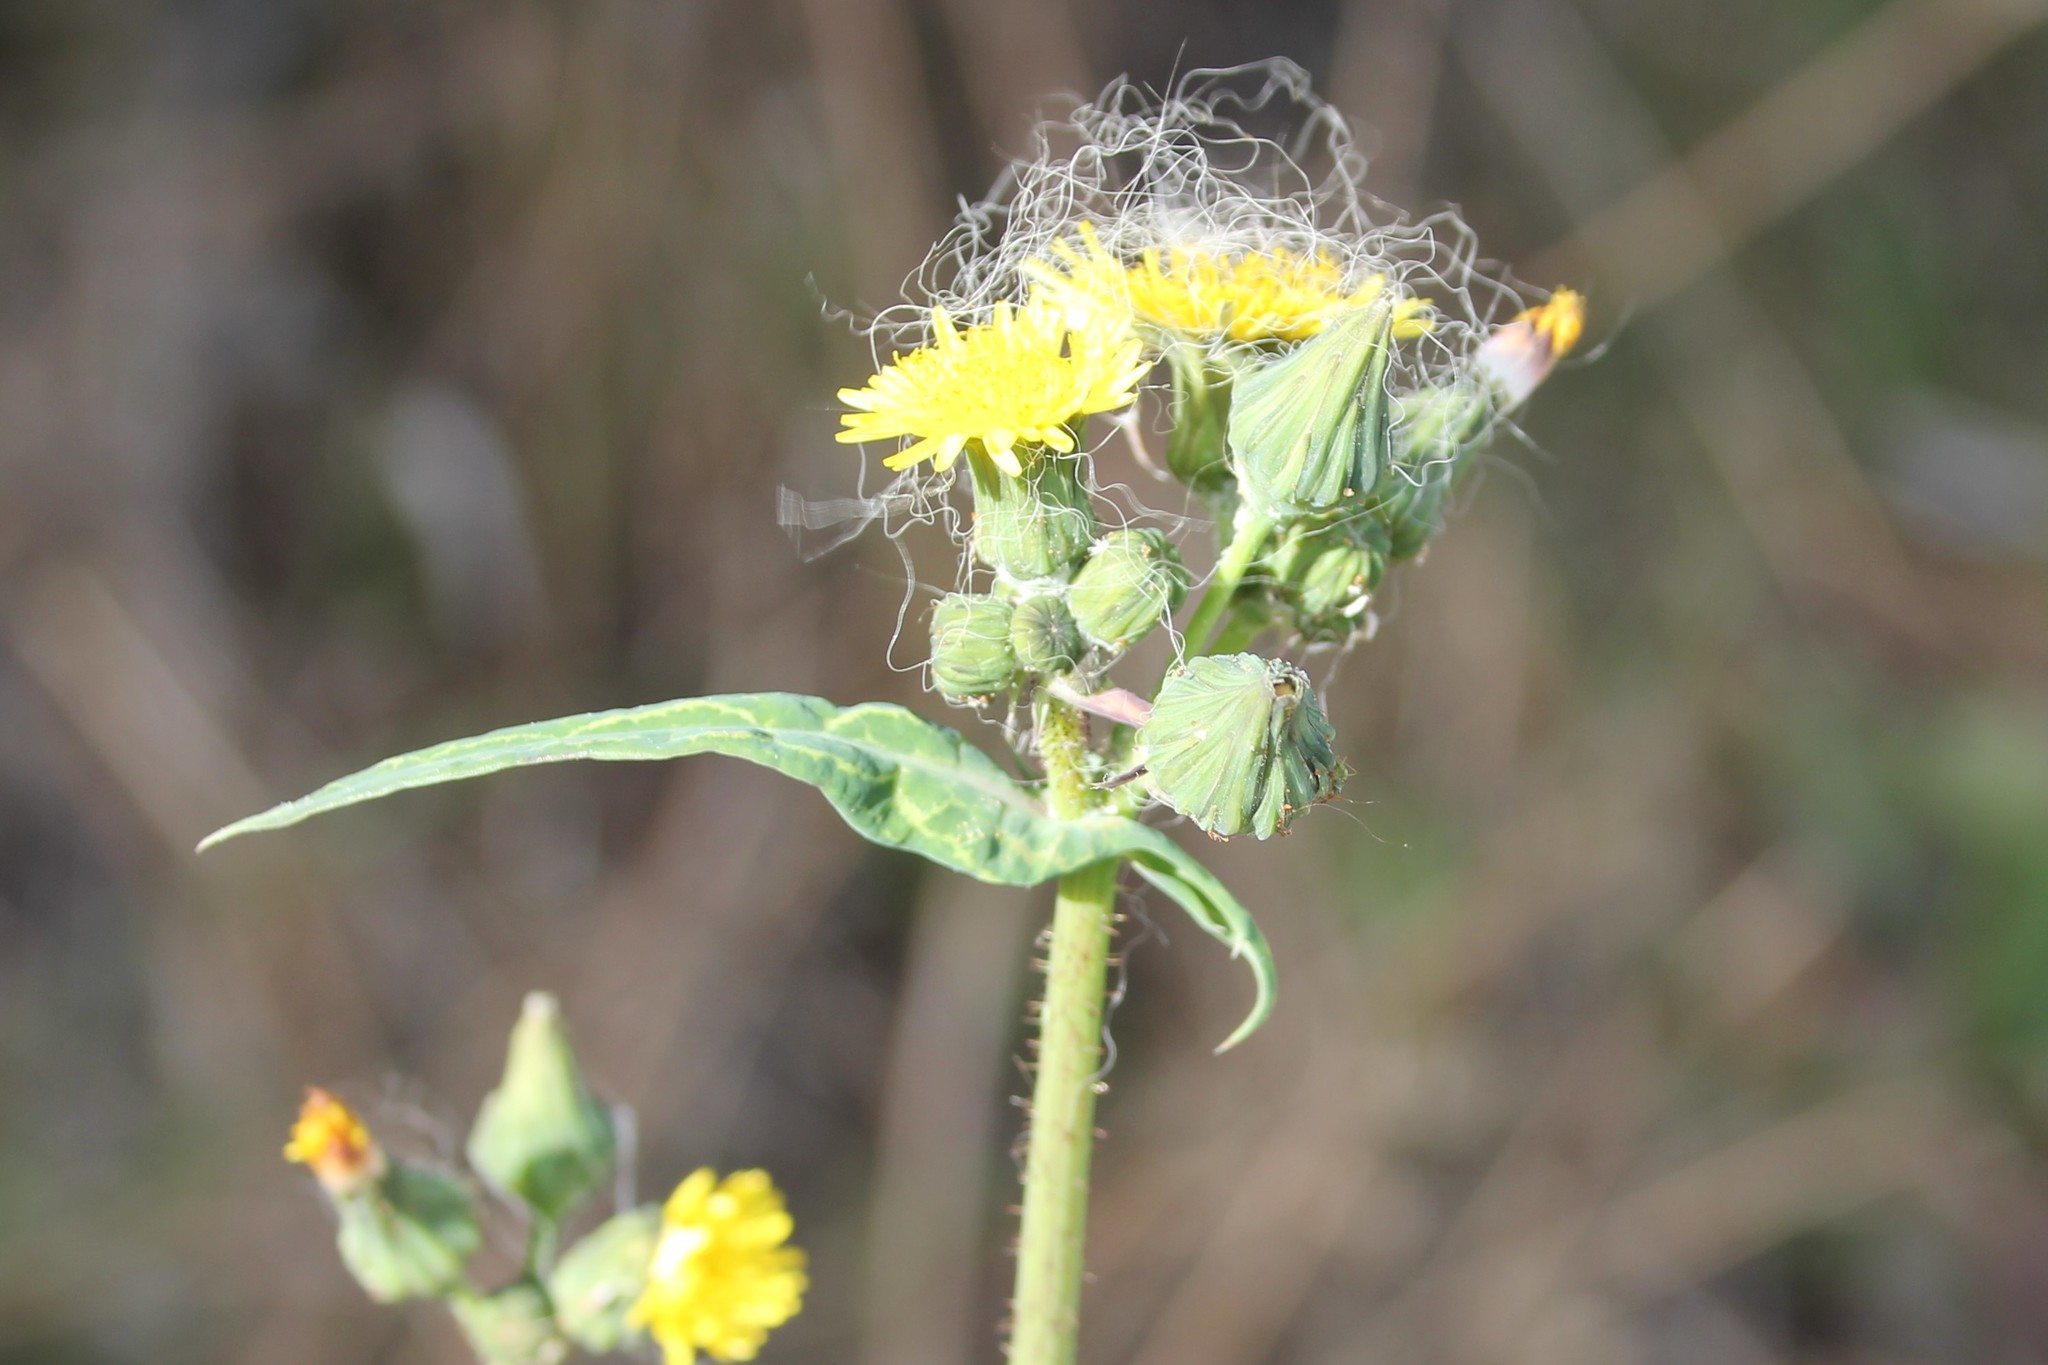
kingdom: Plantae
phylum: Tracheophyta
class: Magnoliopsida
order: Asterales
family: Asteraceae
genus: Sonchus
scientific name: Sonchus oleraceus
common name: Common sowthistle
